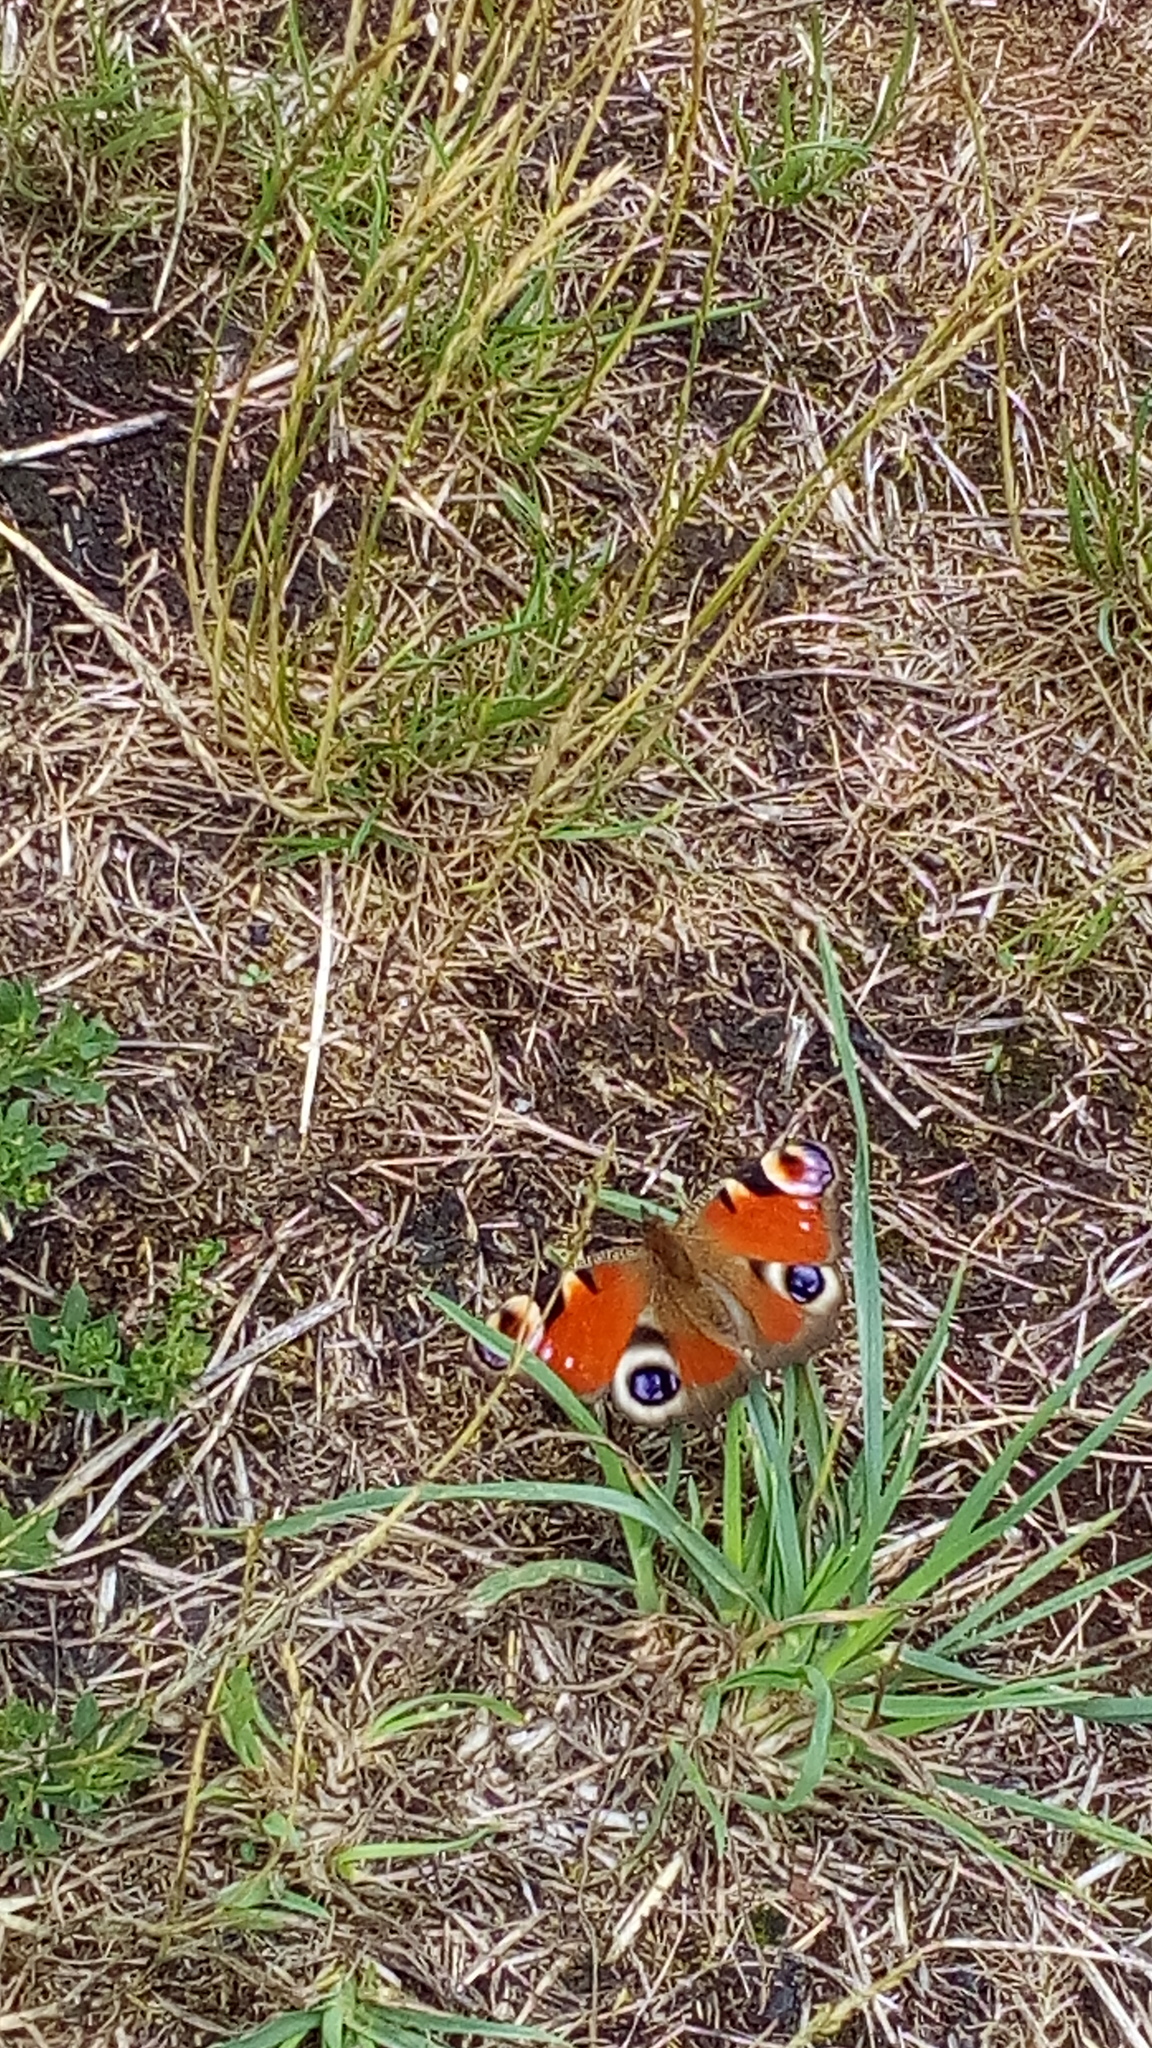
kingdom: Animalia
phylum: Arthropoda
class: Insecta
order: Lepidoptera
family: Nymphalidae
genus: Aglais
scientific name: Aglais io
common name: Peacock
